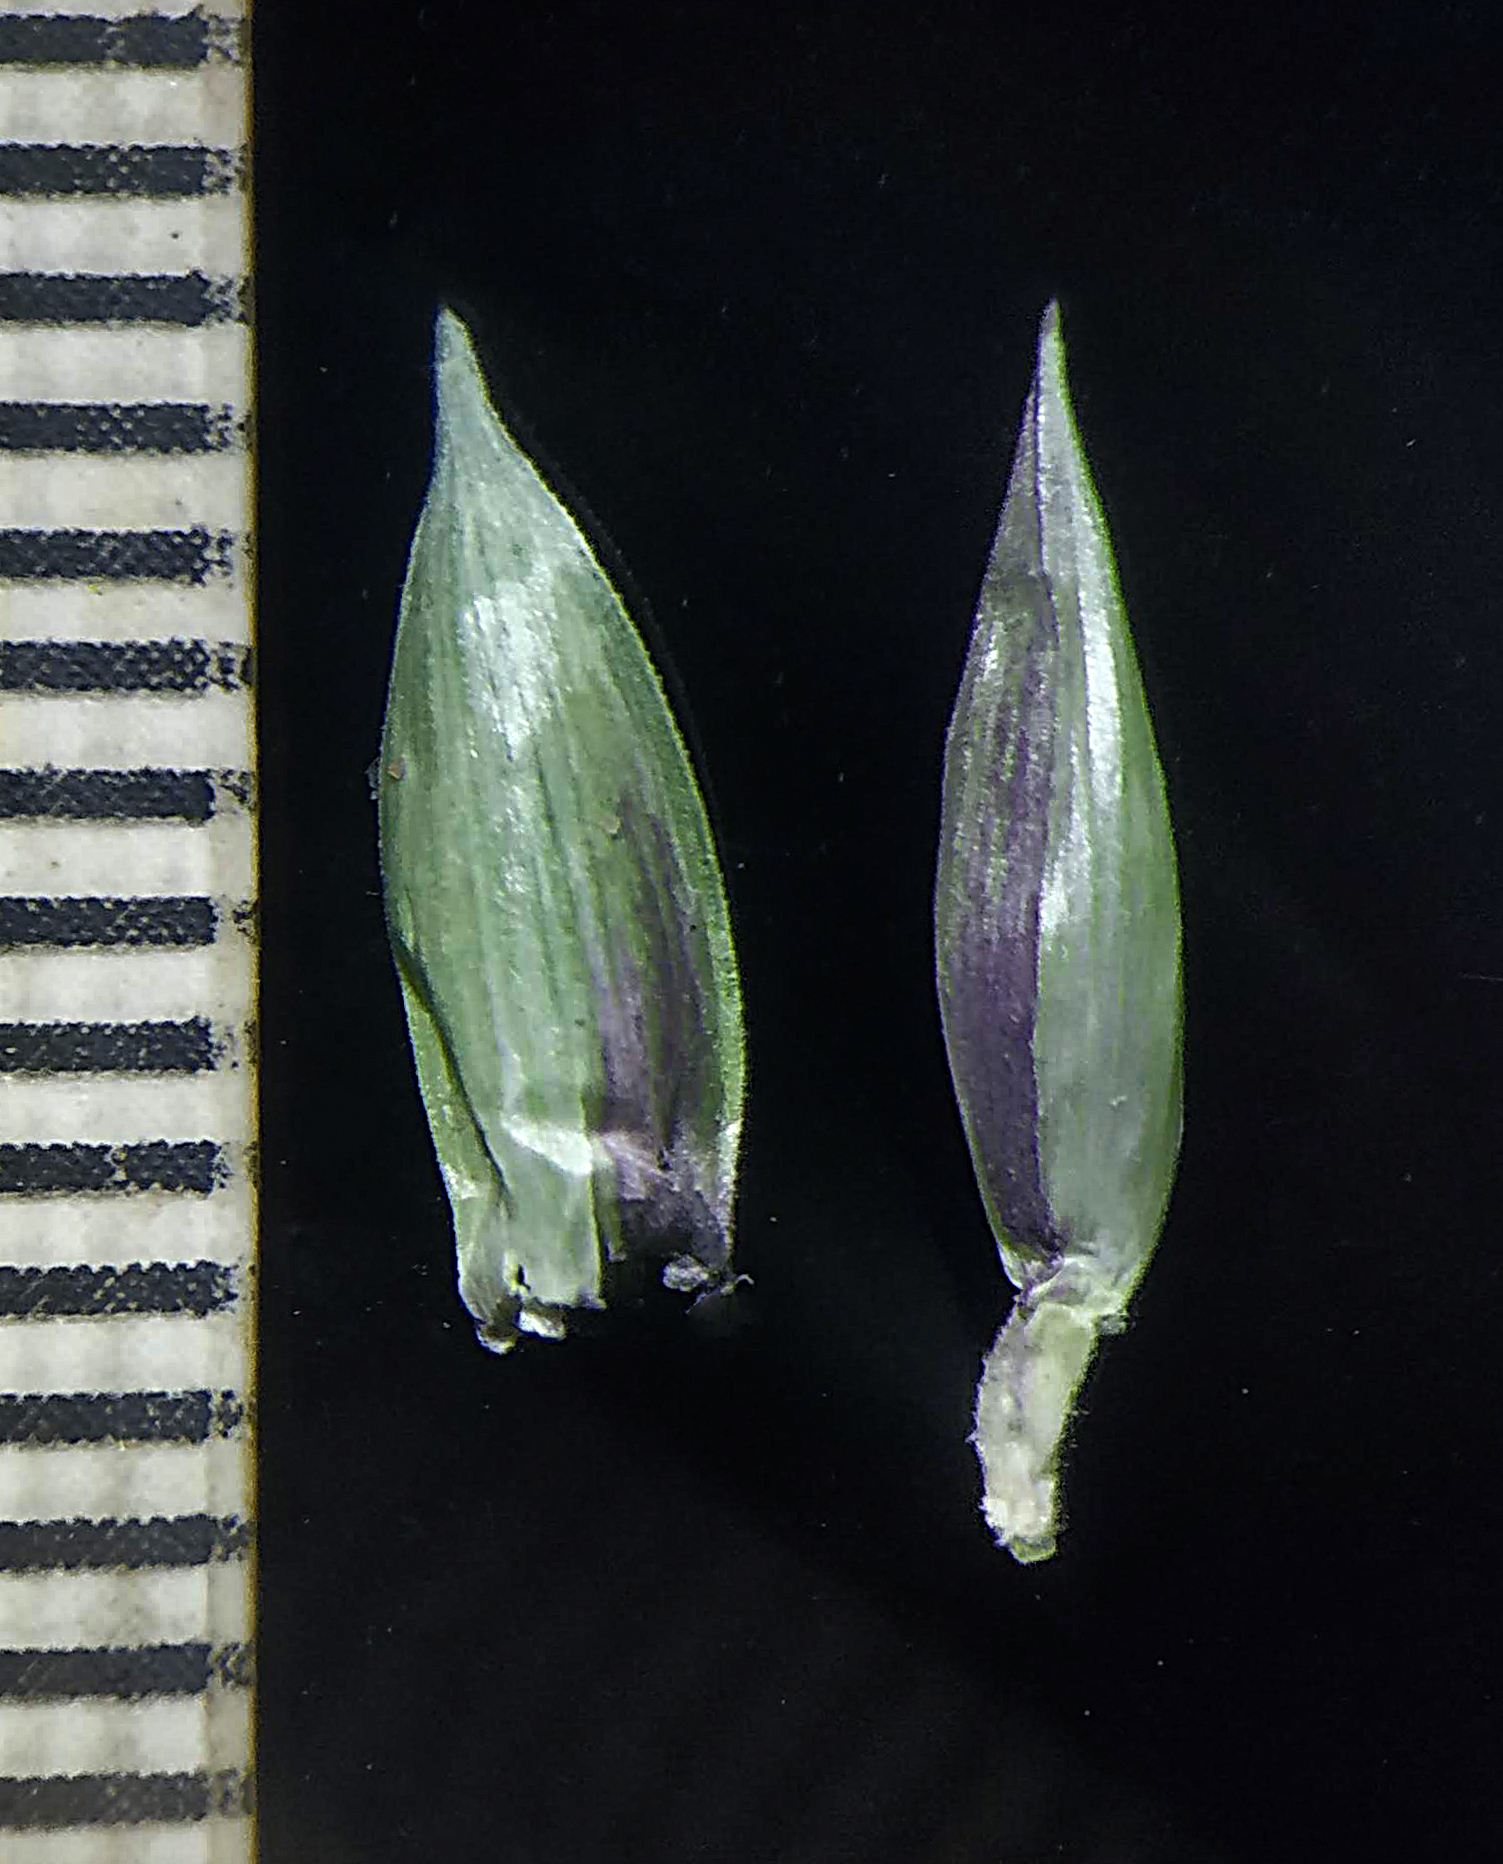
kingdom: Plantae
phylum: Tracheophyta
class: Liliopsida
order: Poales
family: Poaceae
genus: Coix
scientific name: Coix lacryma-jobi
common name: Job's tears
